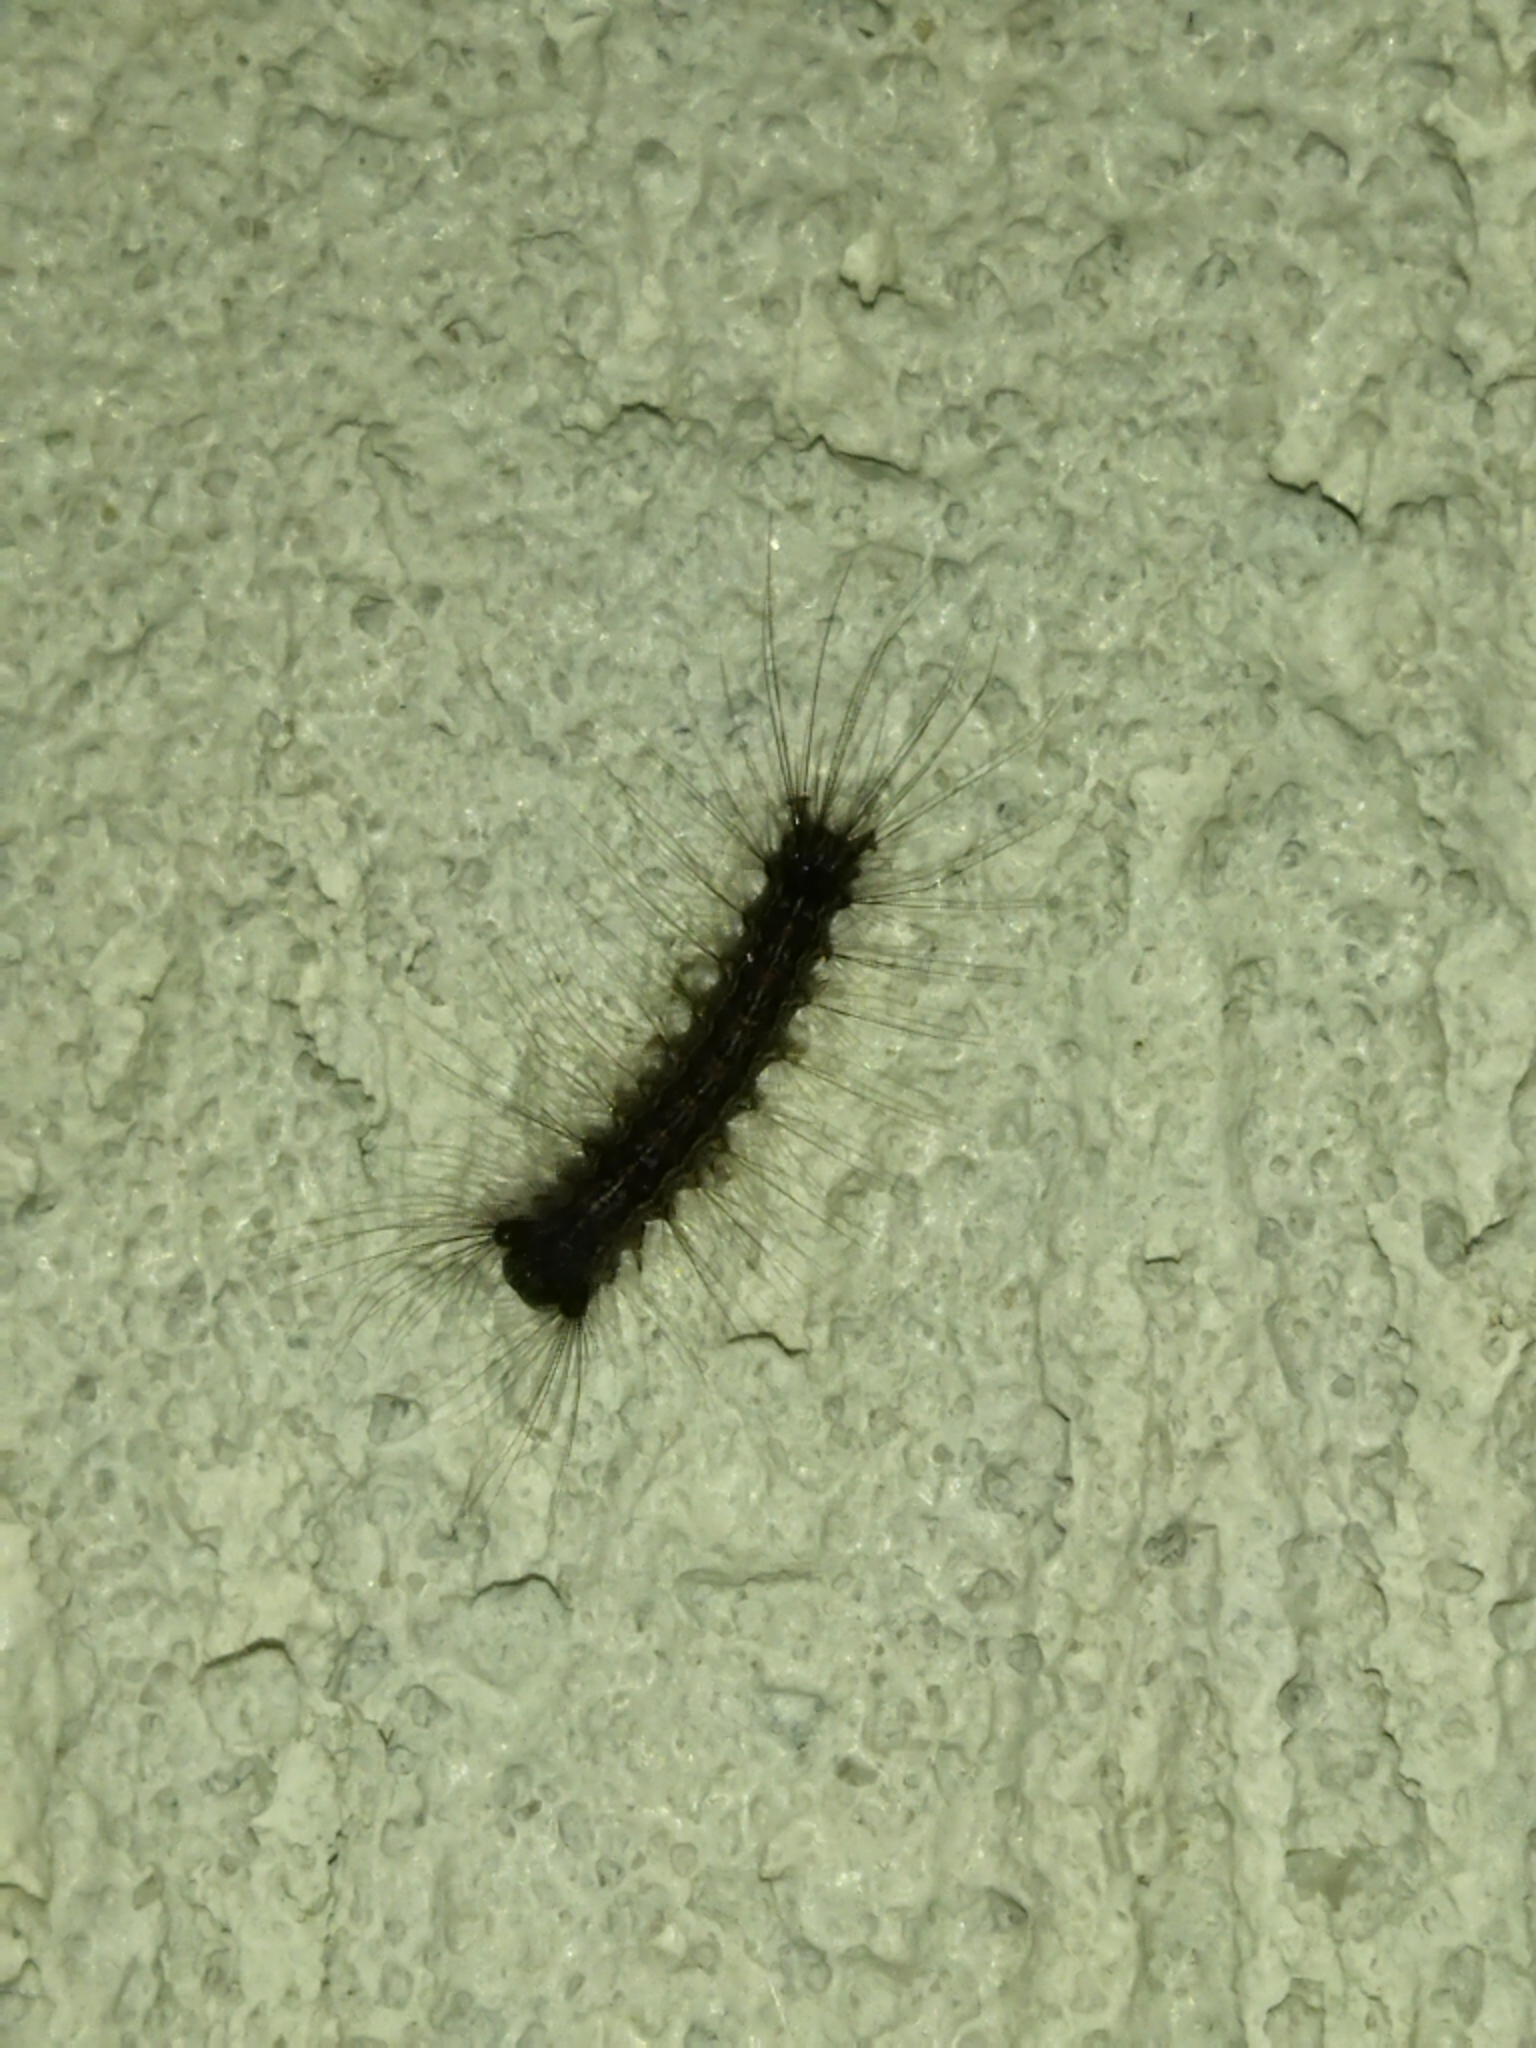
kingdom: Animalia
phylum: Arthropoda
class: Insecta
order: Lepidoptera
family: Erebidae
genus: Lymantria
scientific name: Lymantria dispar
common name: Gypsy moth
